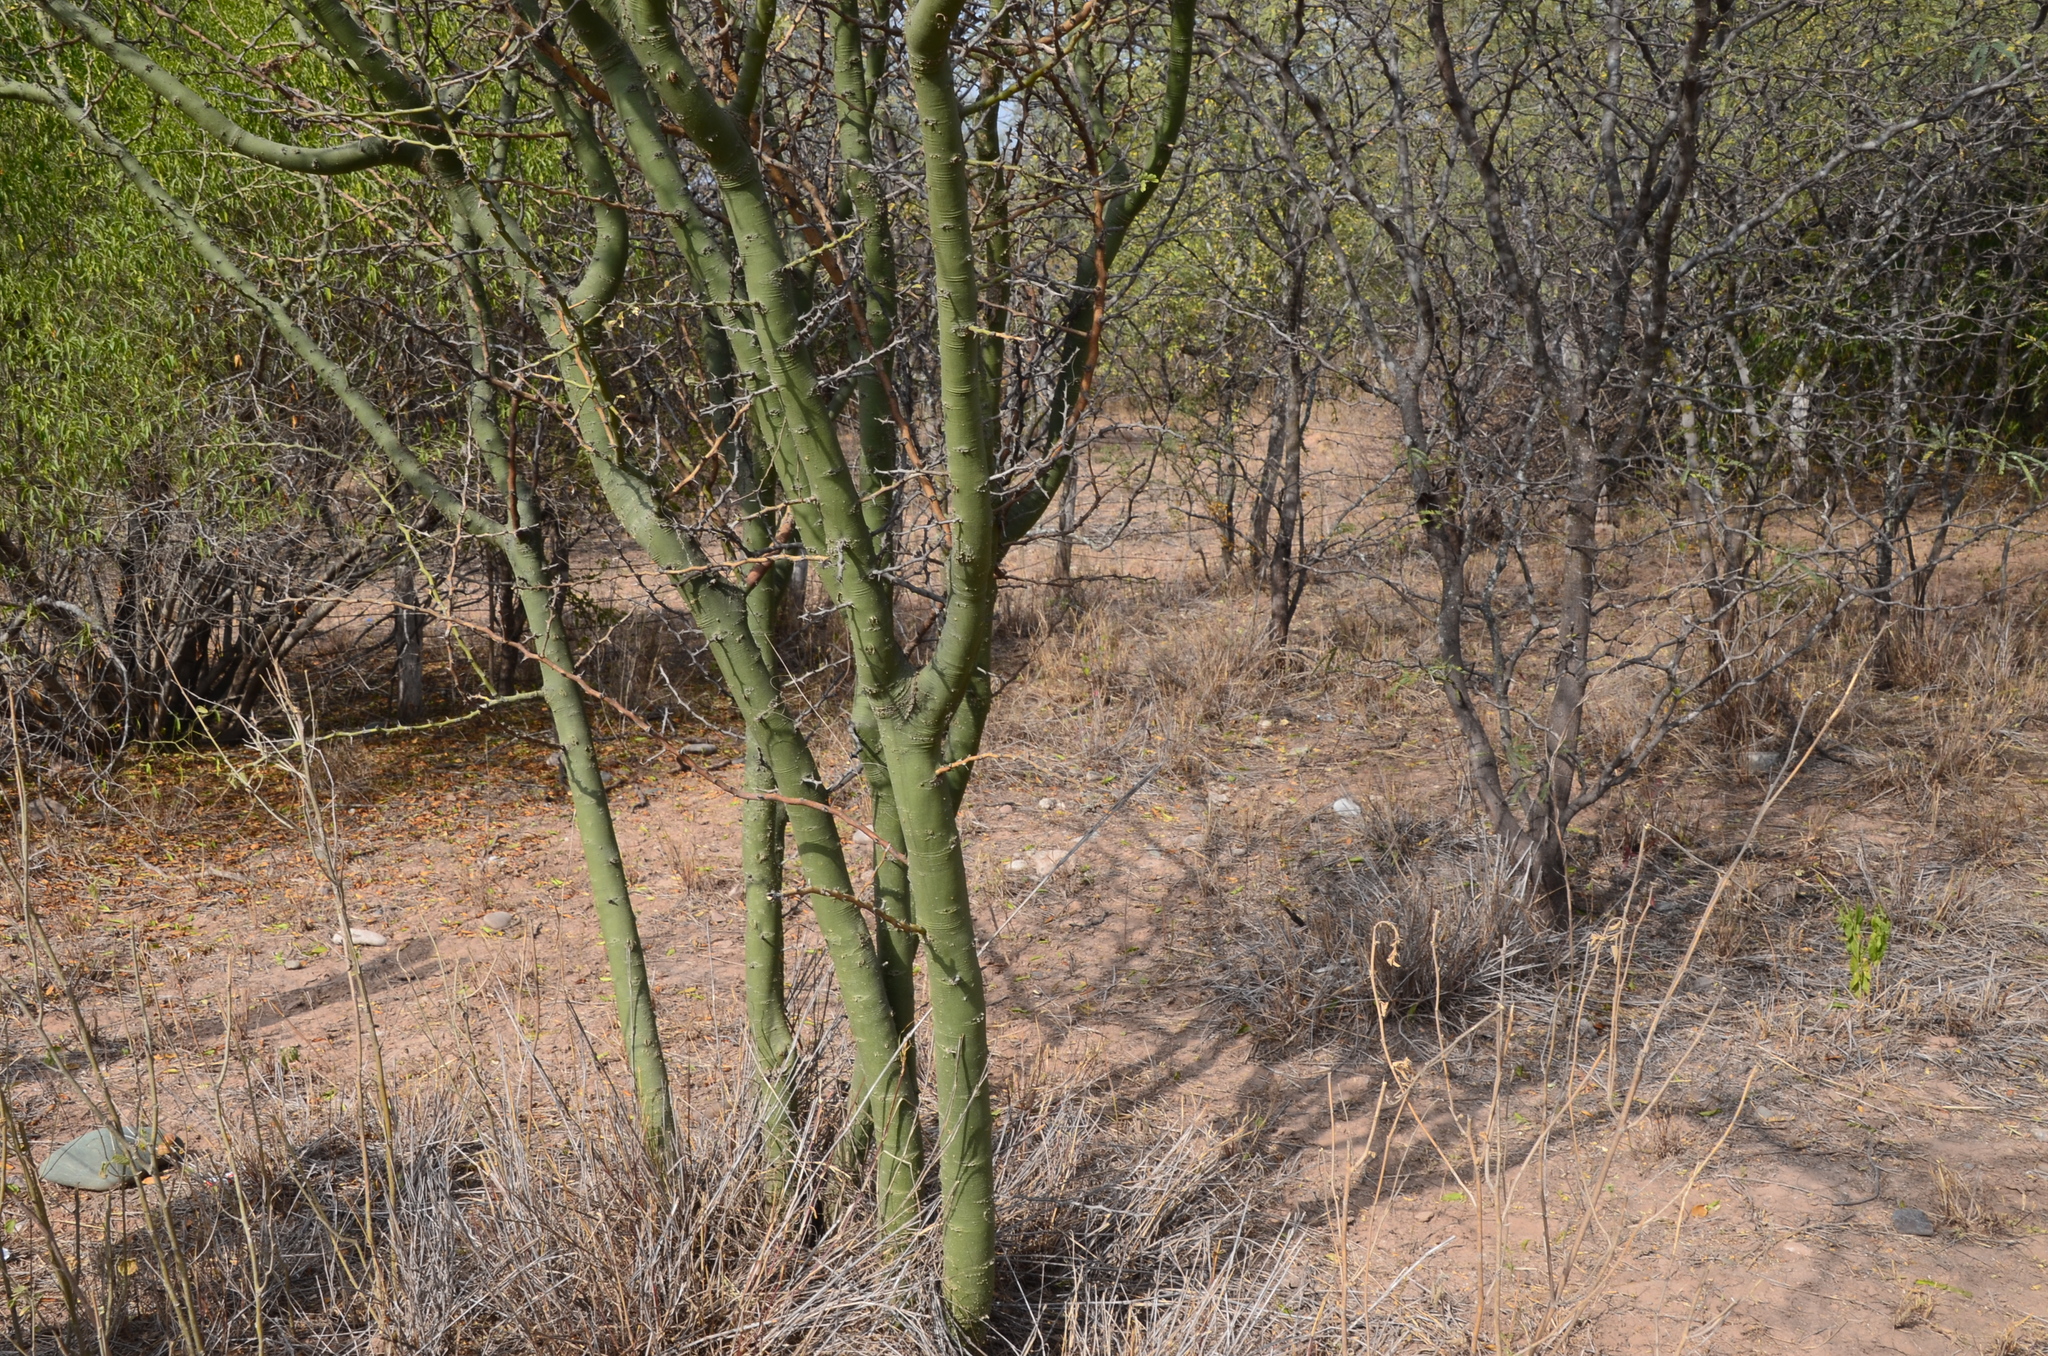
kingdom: Plantae
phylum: Tracheophyta
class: Magnoliopsida
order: Fabales
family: Fabaceae
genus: Parkinsonia
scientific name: Parkinsonia praecox
